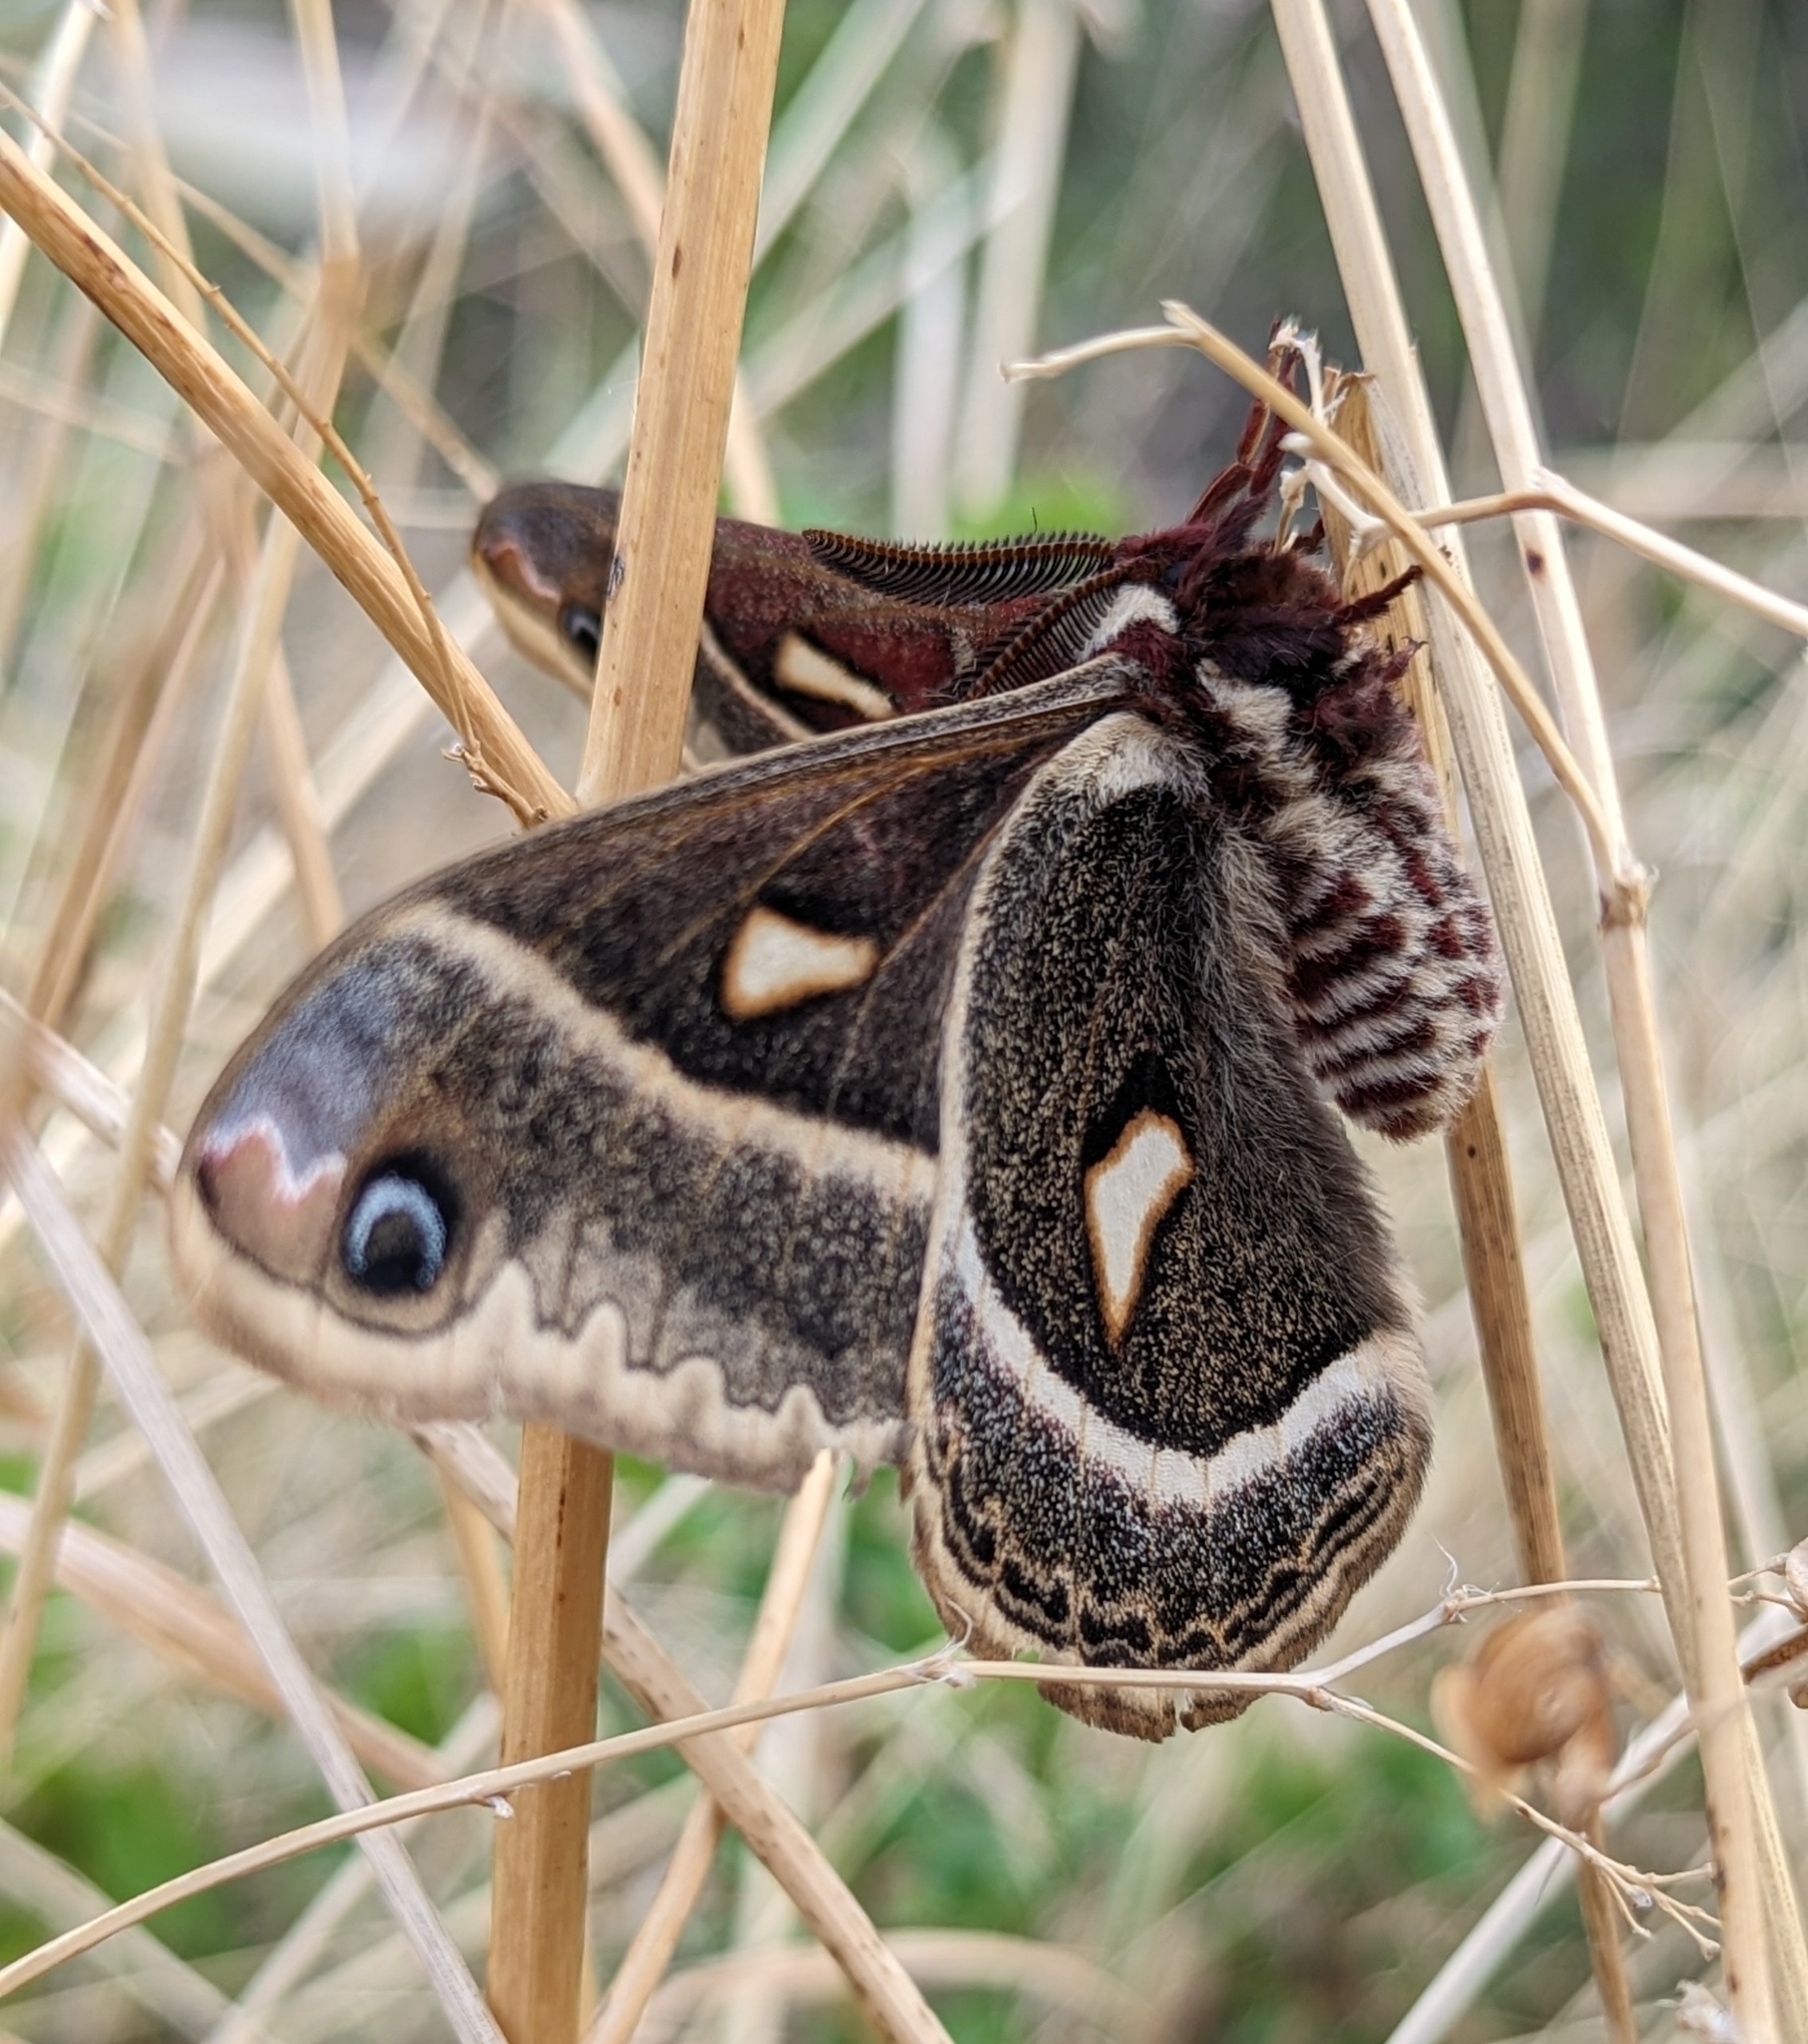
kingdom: Animalia
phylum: Arthropoda
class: Insecta
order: Lepidoptera
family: Saturniidae
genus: Hyalophora
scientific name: Hyalophora gloveri
